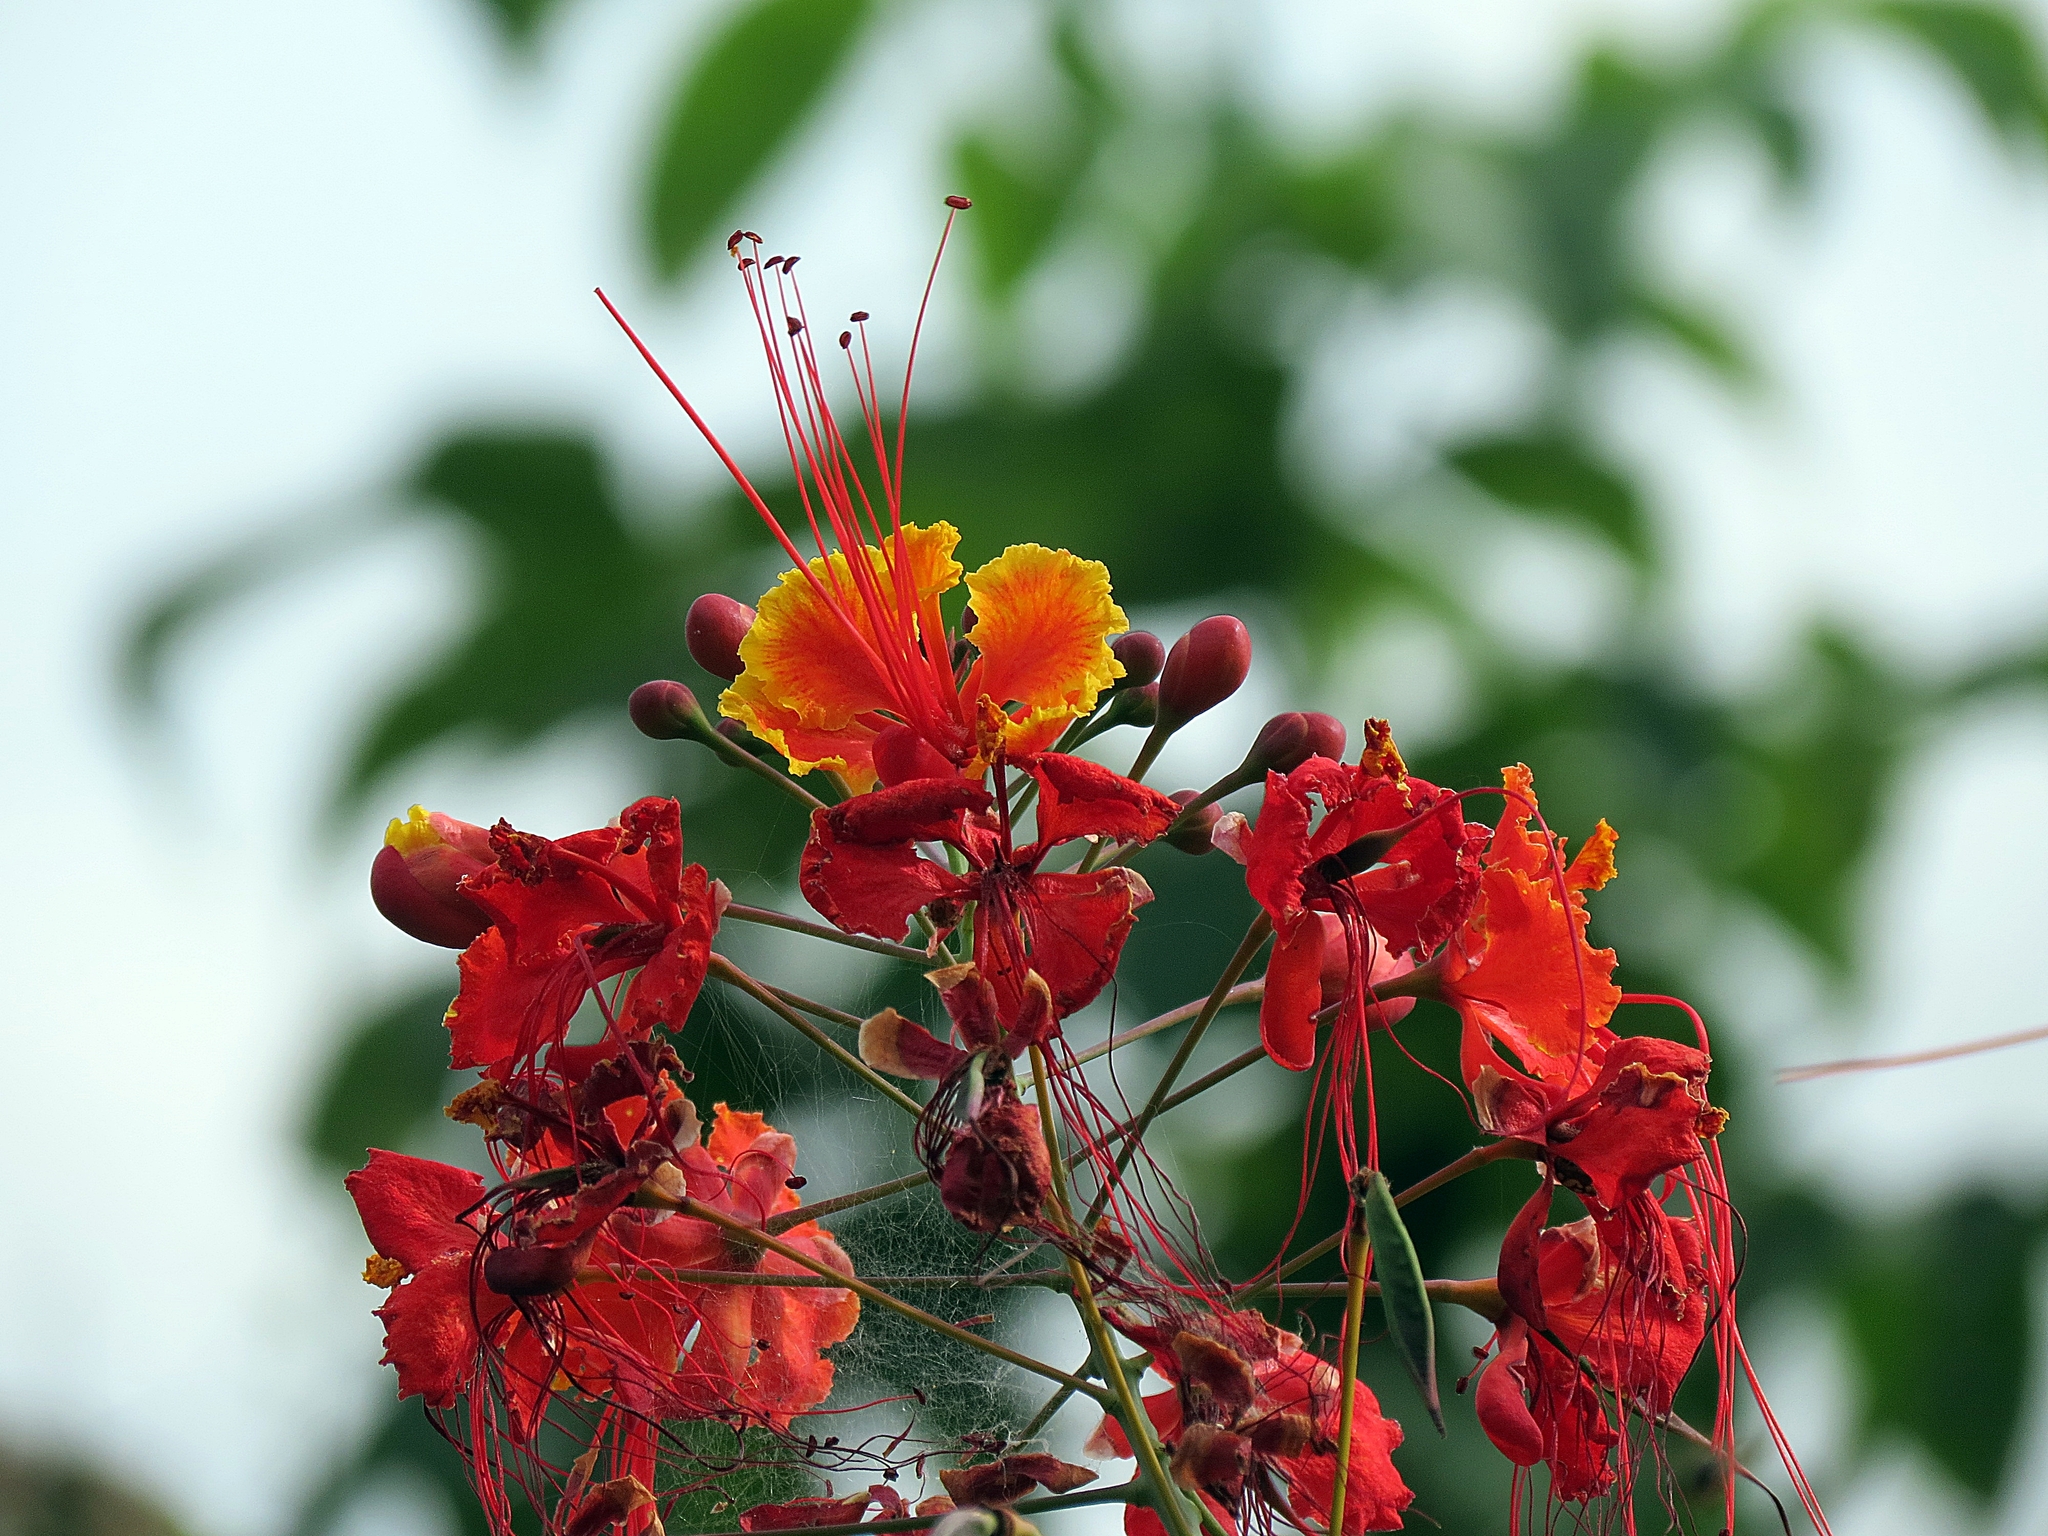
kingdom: Plantae
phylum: Tracheophyta
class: Magnoliopsida
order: Fabales
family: Fabaceae
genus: Caesalpinia
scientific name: Caesalpinia pulcherrima
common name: Pride-of-barbados
